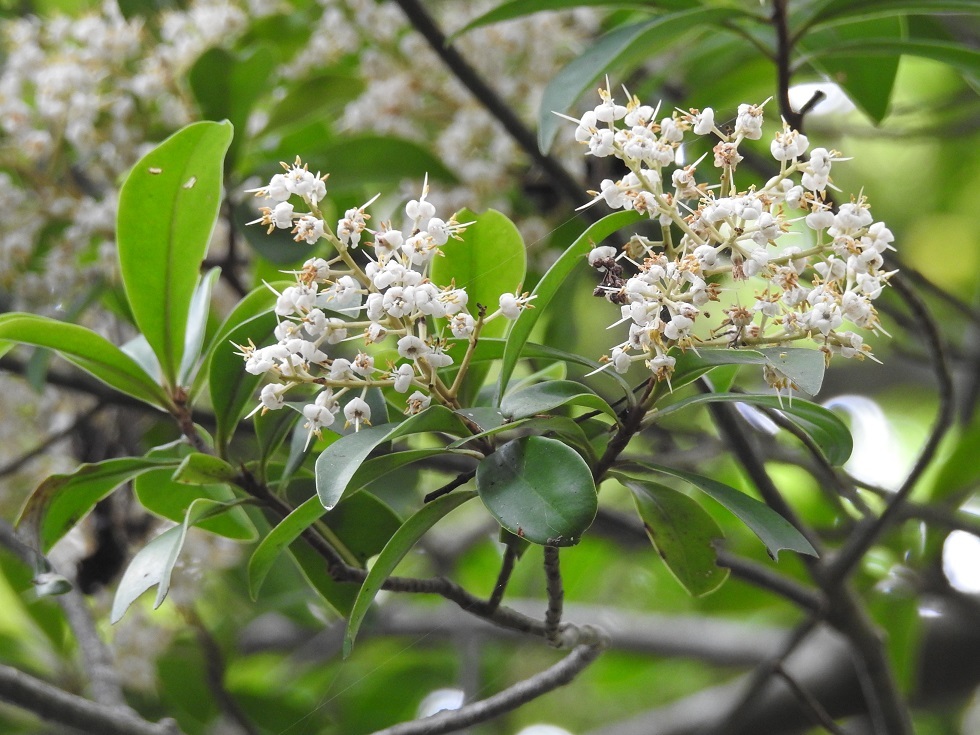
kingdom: Plantae
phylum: Tracheophyta
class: Magnoliopsida
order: Ericales
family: Primulaceae
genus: Ardisia
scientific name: Ardisia escallonioides
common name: Island marlberry
